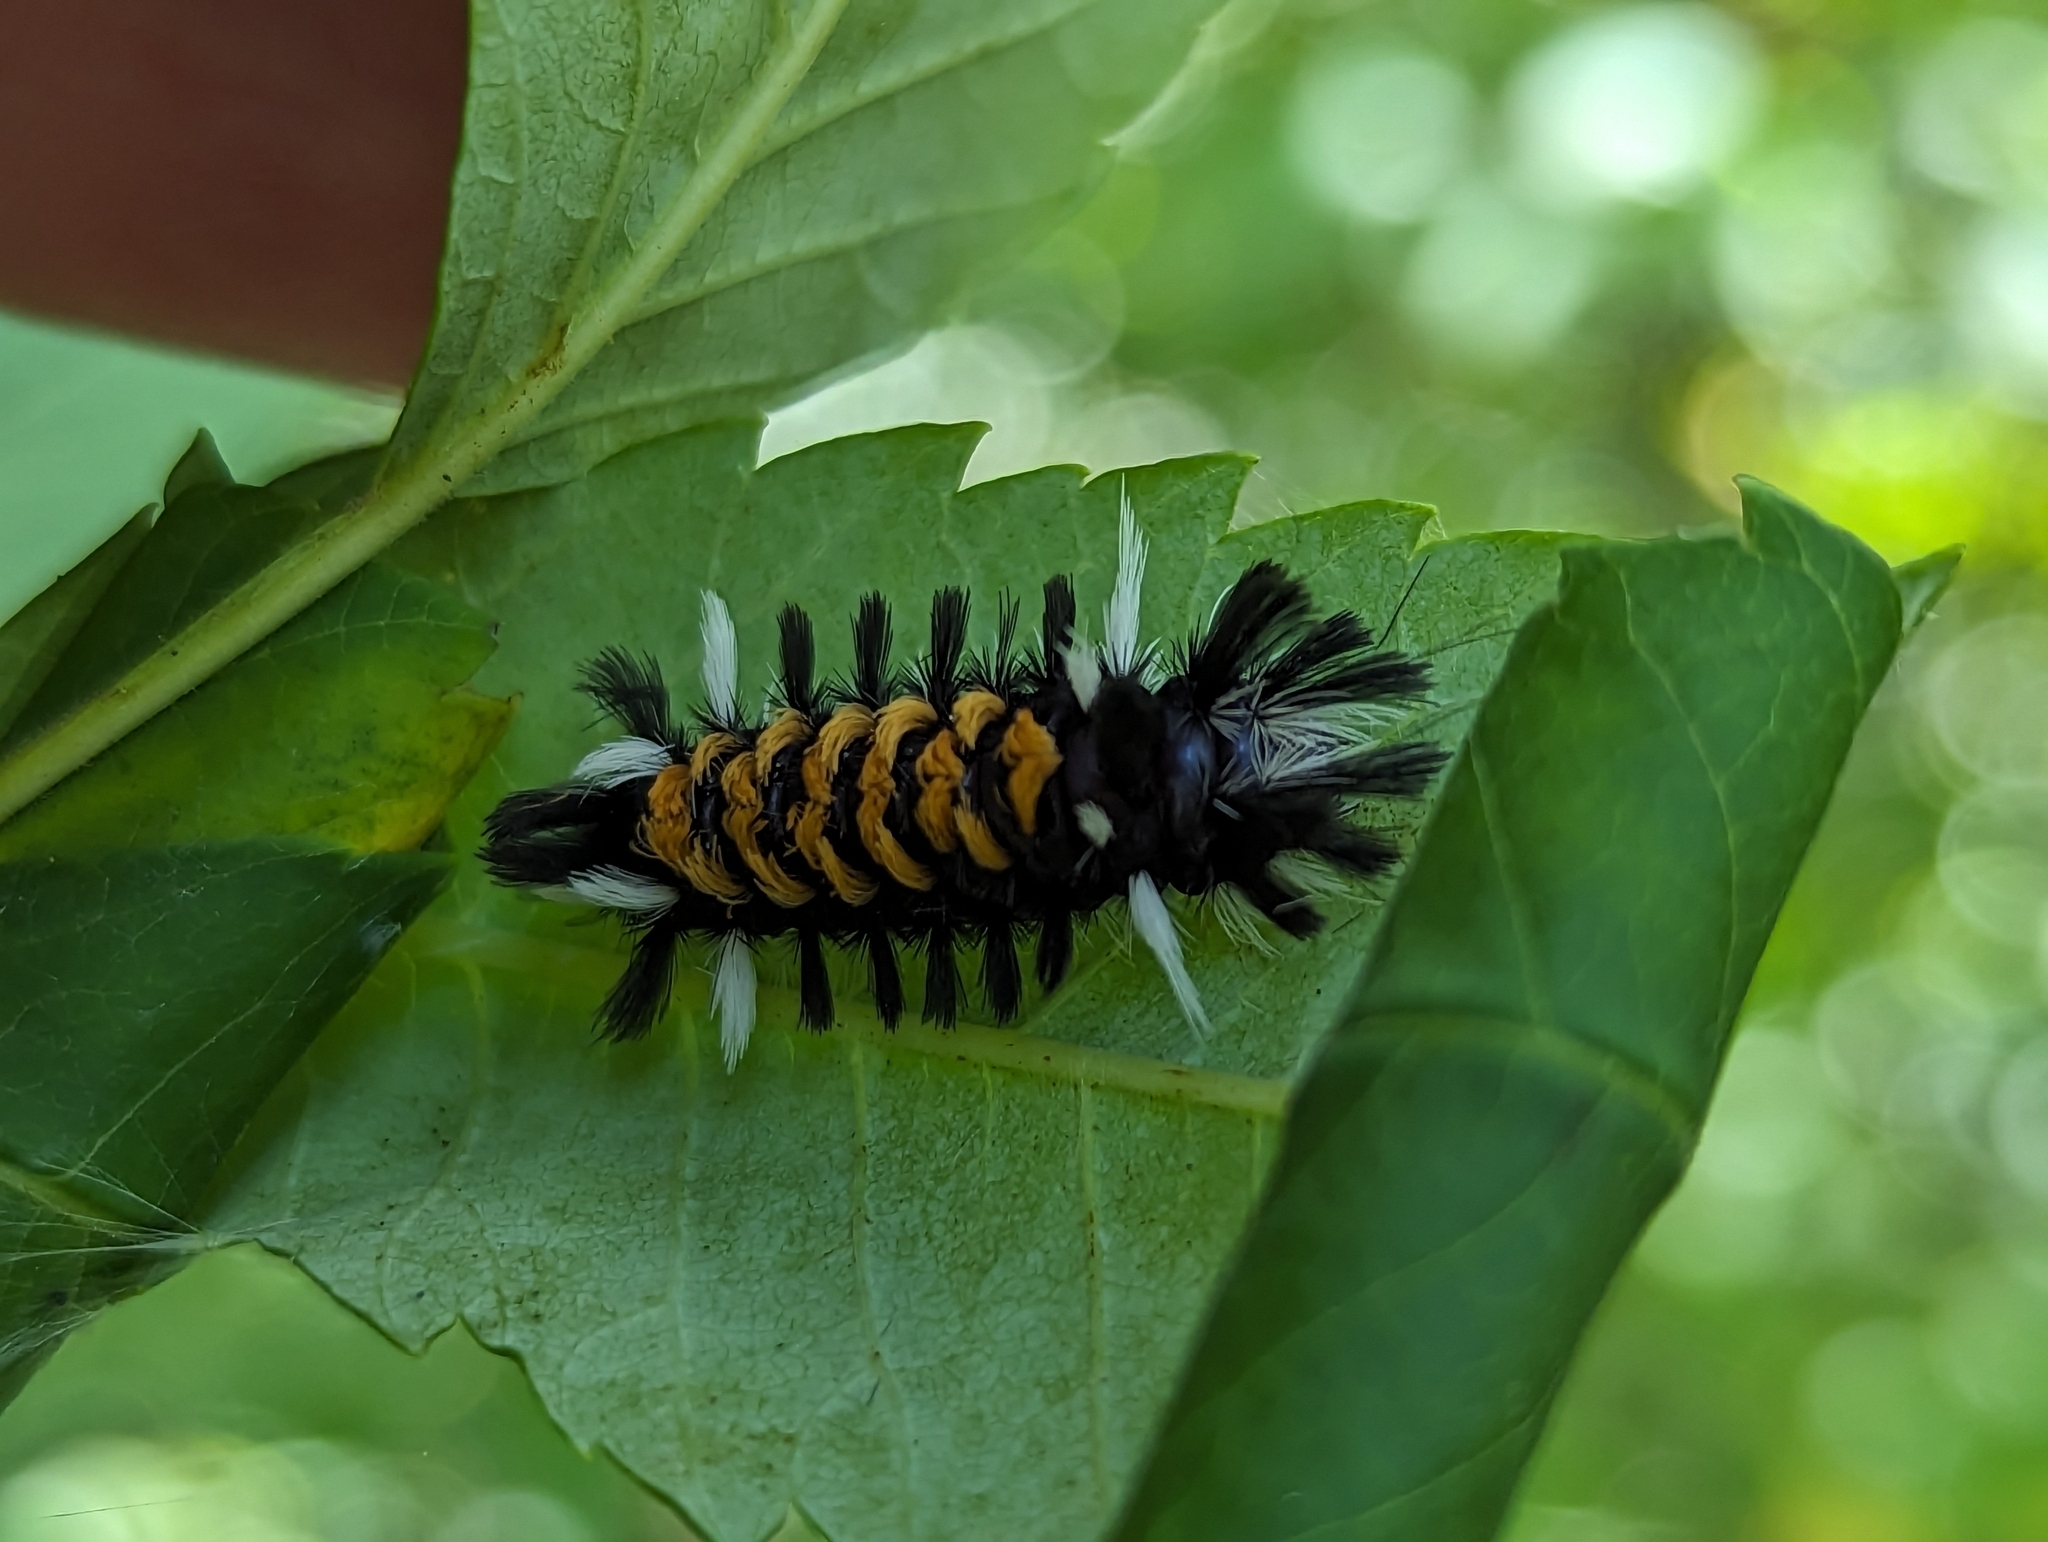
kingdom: Animalia
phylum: Arthropoda
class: Insecta
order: Lepidoptera
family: Erebidae
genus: Euchaetes
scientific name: Euchaetes egle
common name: Milkweed tussock moth
